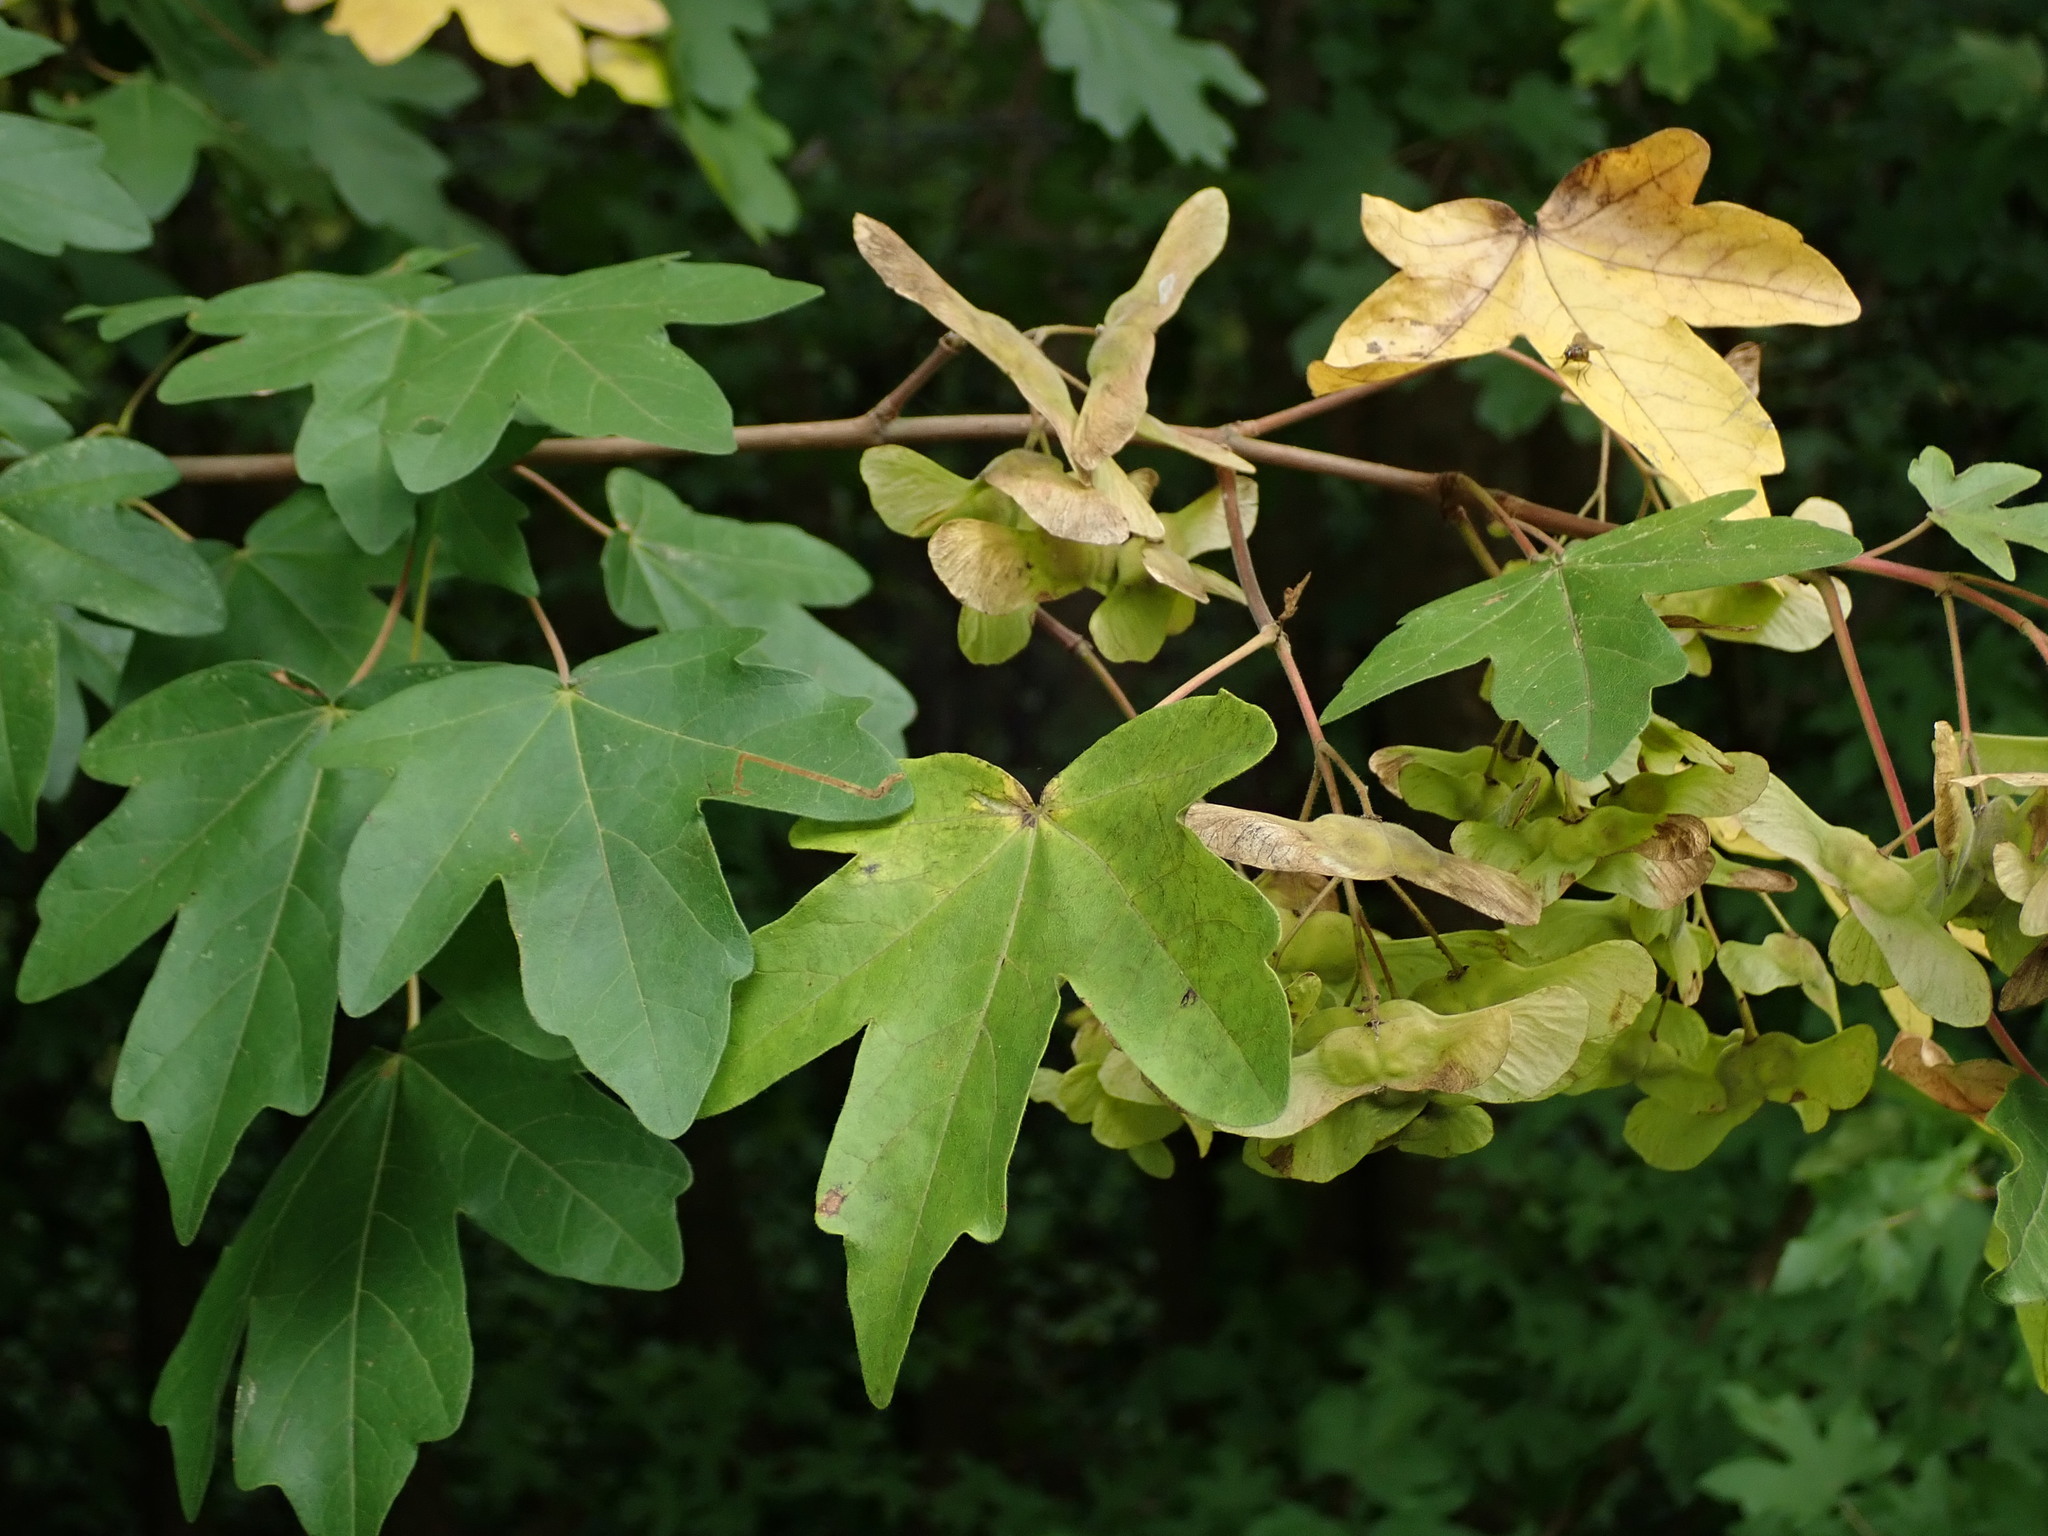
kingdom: Plantae
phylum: Tracheophyta
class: Magnoliopsida
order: Sapindales
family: Sapindaceae
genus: Acer
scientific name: Acer campestre
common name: Field maple
